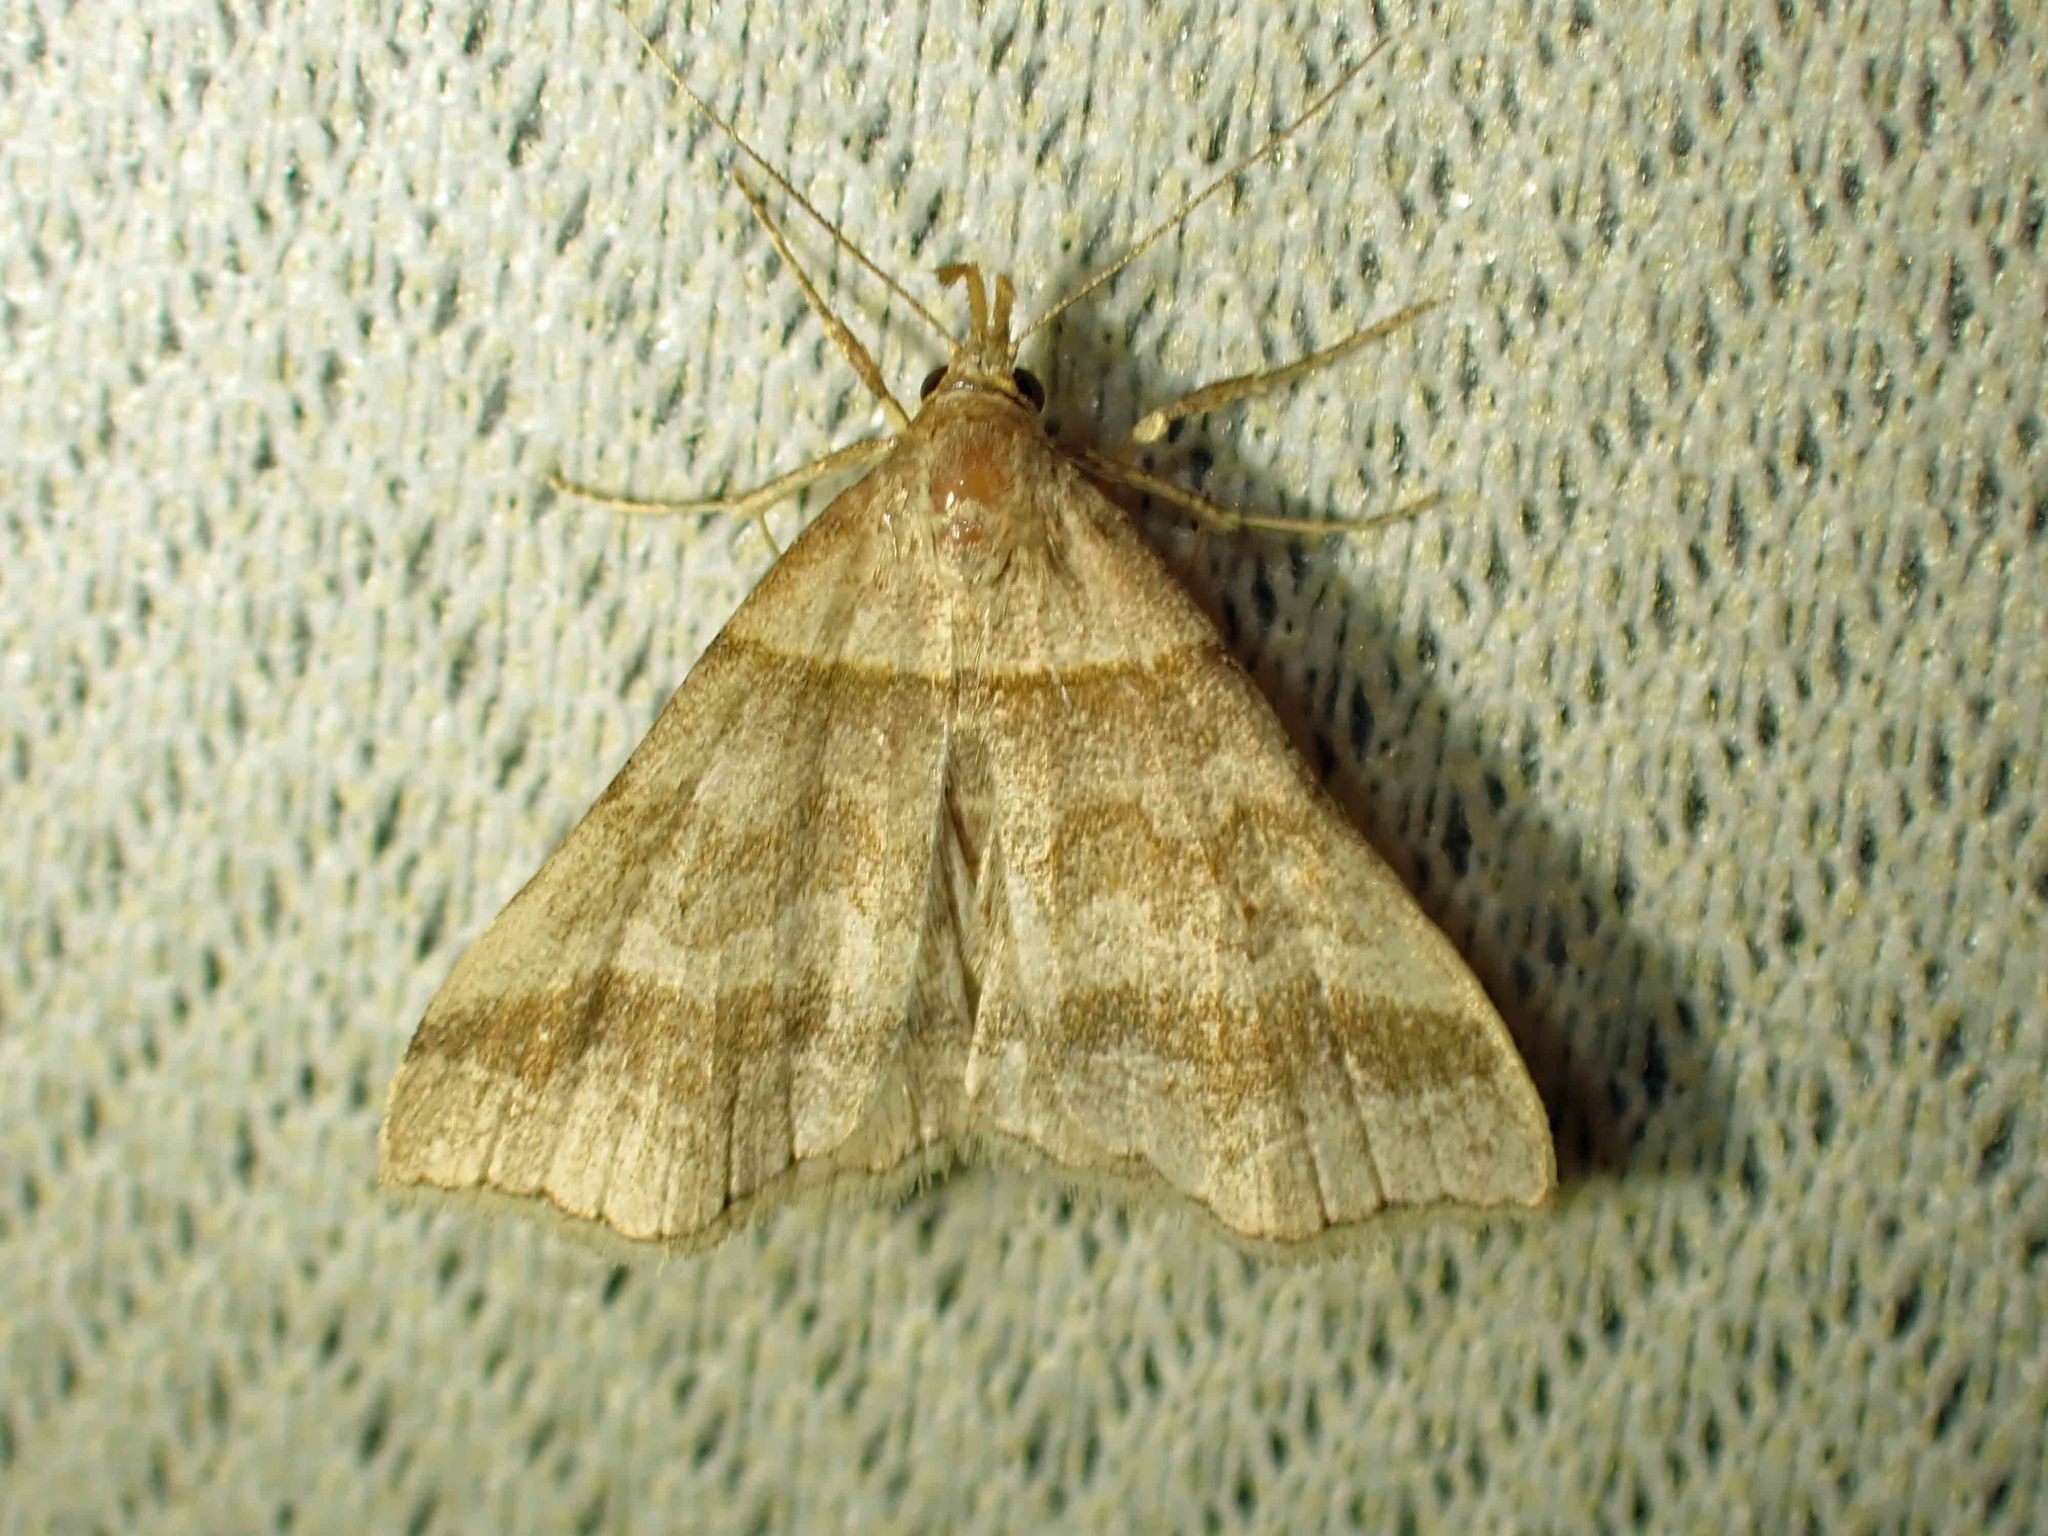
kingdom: Animalia
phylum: Arthropoda
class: Insecta
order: Lepidoptera
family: Erebidae
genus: Phaeolita
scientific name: Phaeolita pyramusalis
